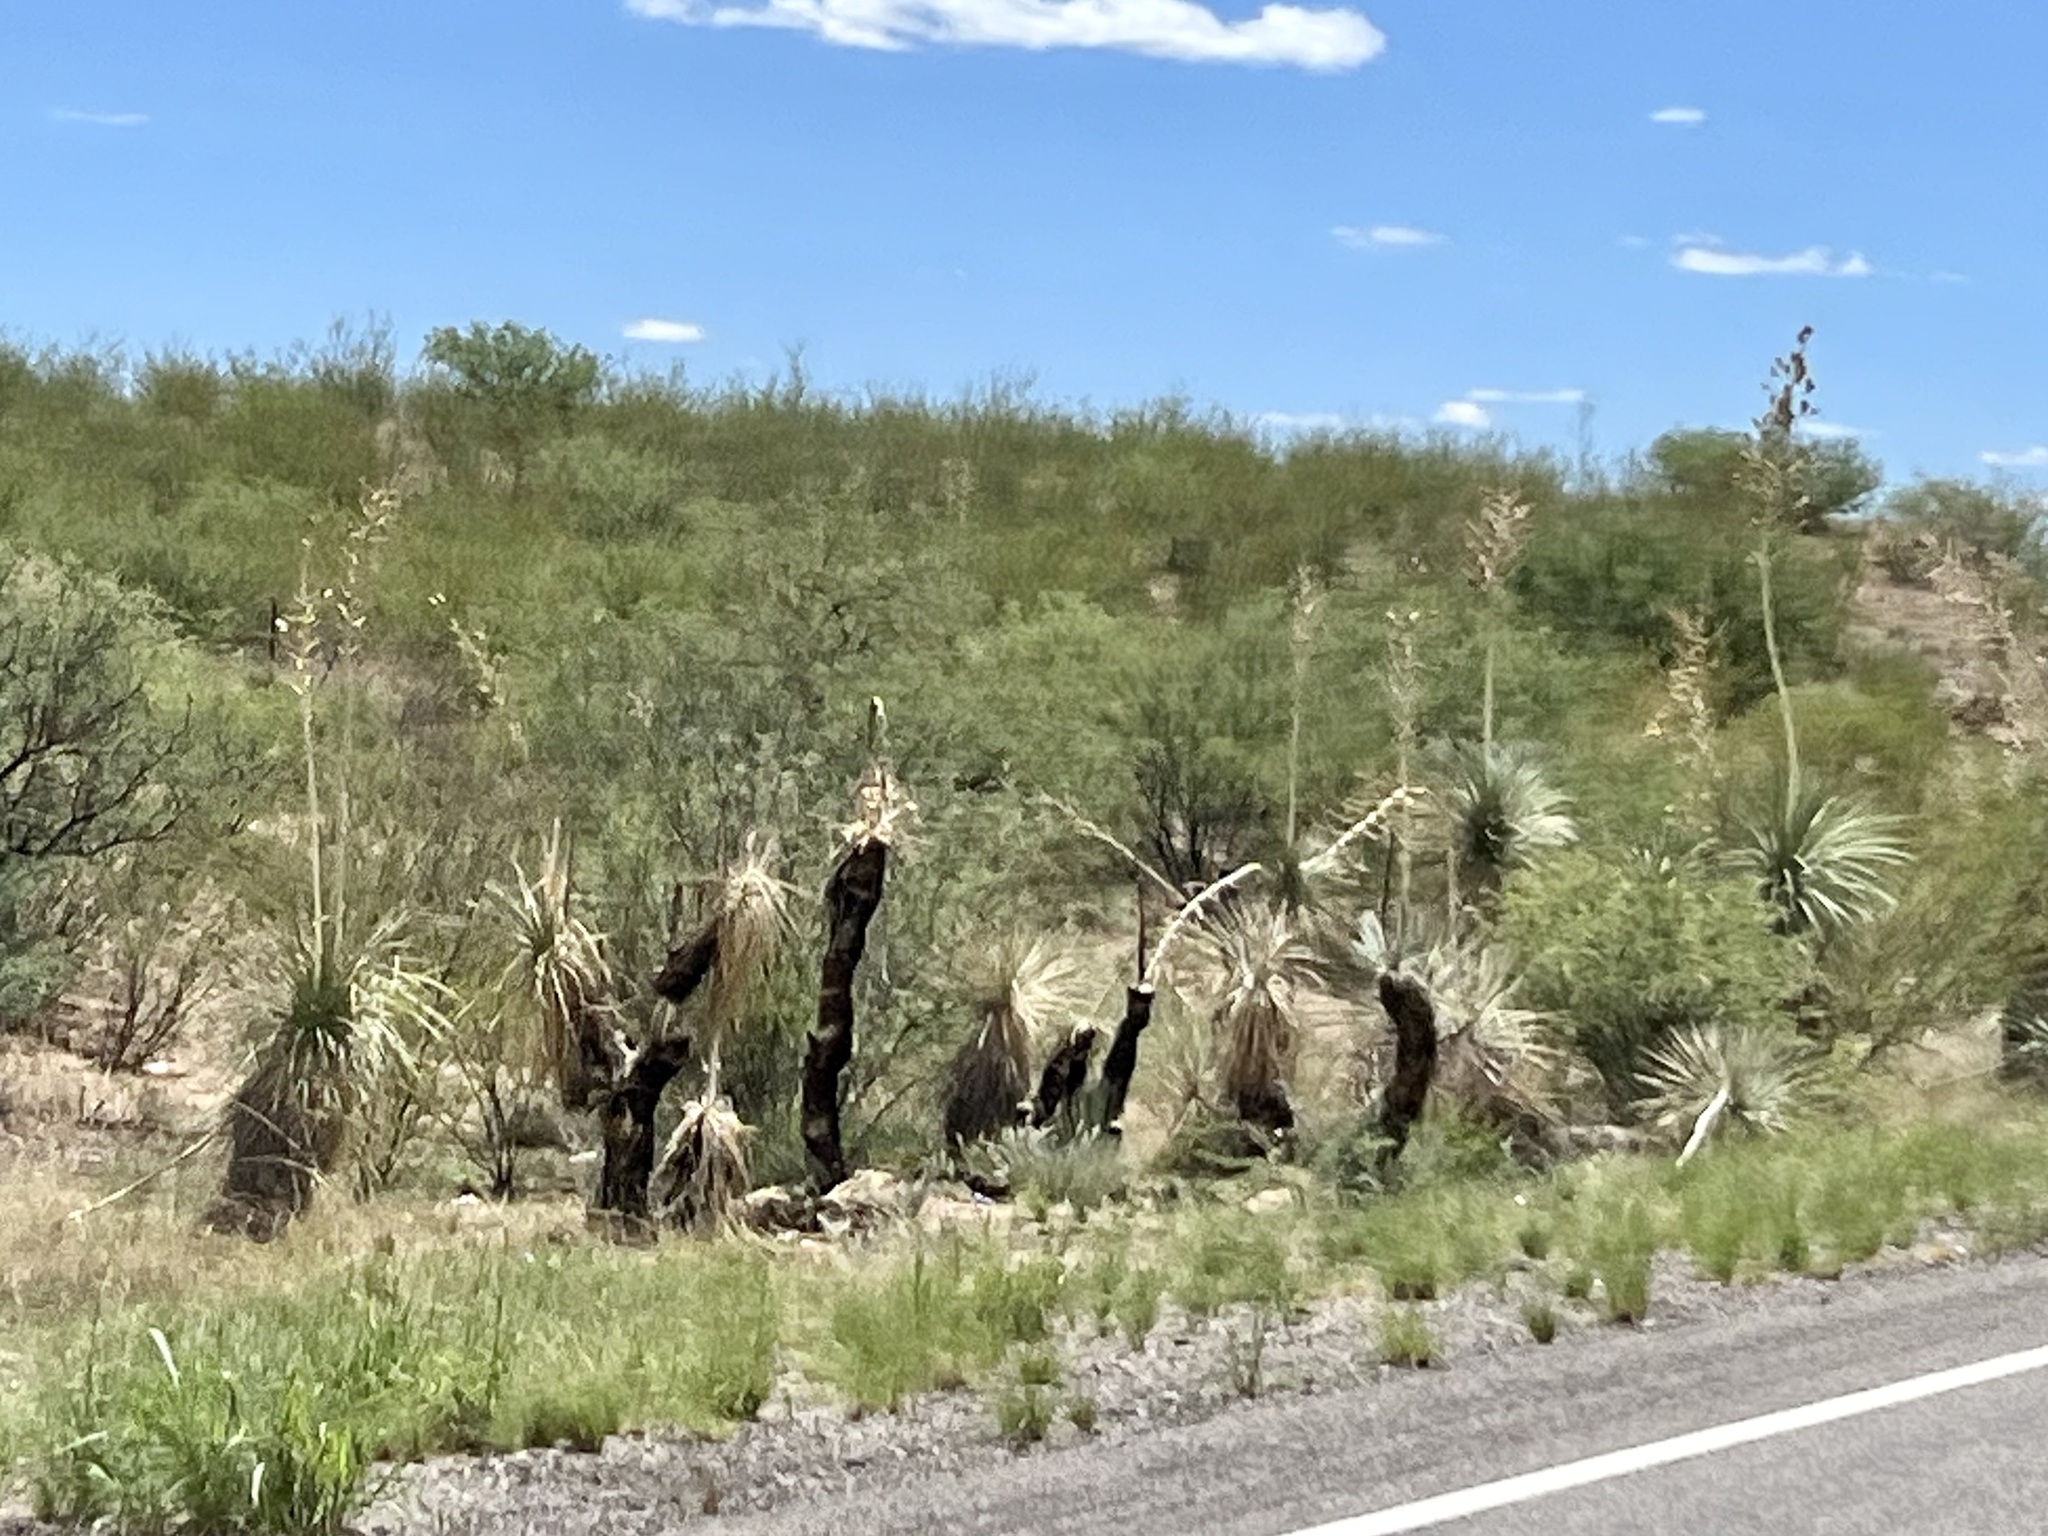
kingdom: Plantae
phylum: Tracheophyta
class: Liliopsida
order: Asparagales
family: Asparagaceae
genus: Yucca
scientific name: Yucca elata
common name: Palmella
